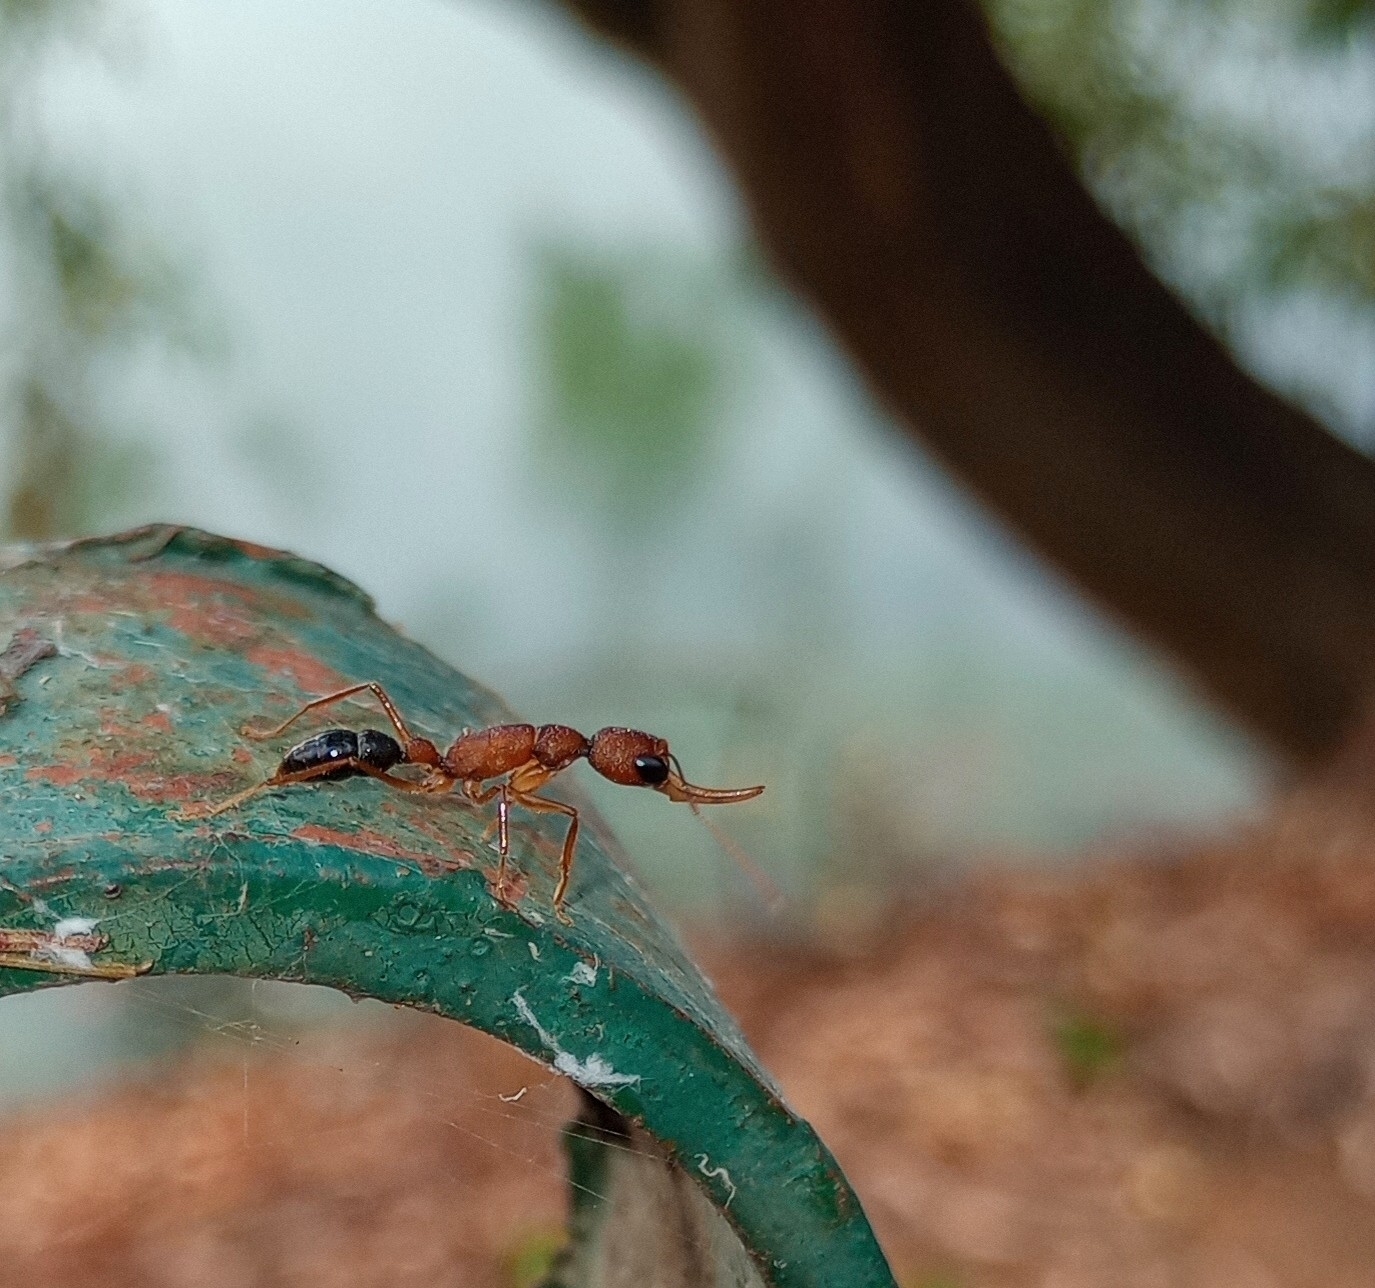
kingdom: Animalia
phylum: Arthropoda
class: Insecta
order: Hymenoptera
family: Formicidae
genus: Harpegnathos
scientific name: Harpegnathos saltator
